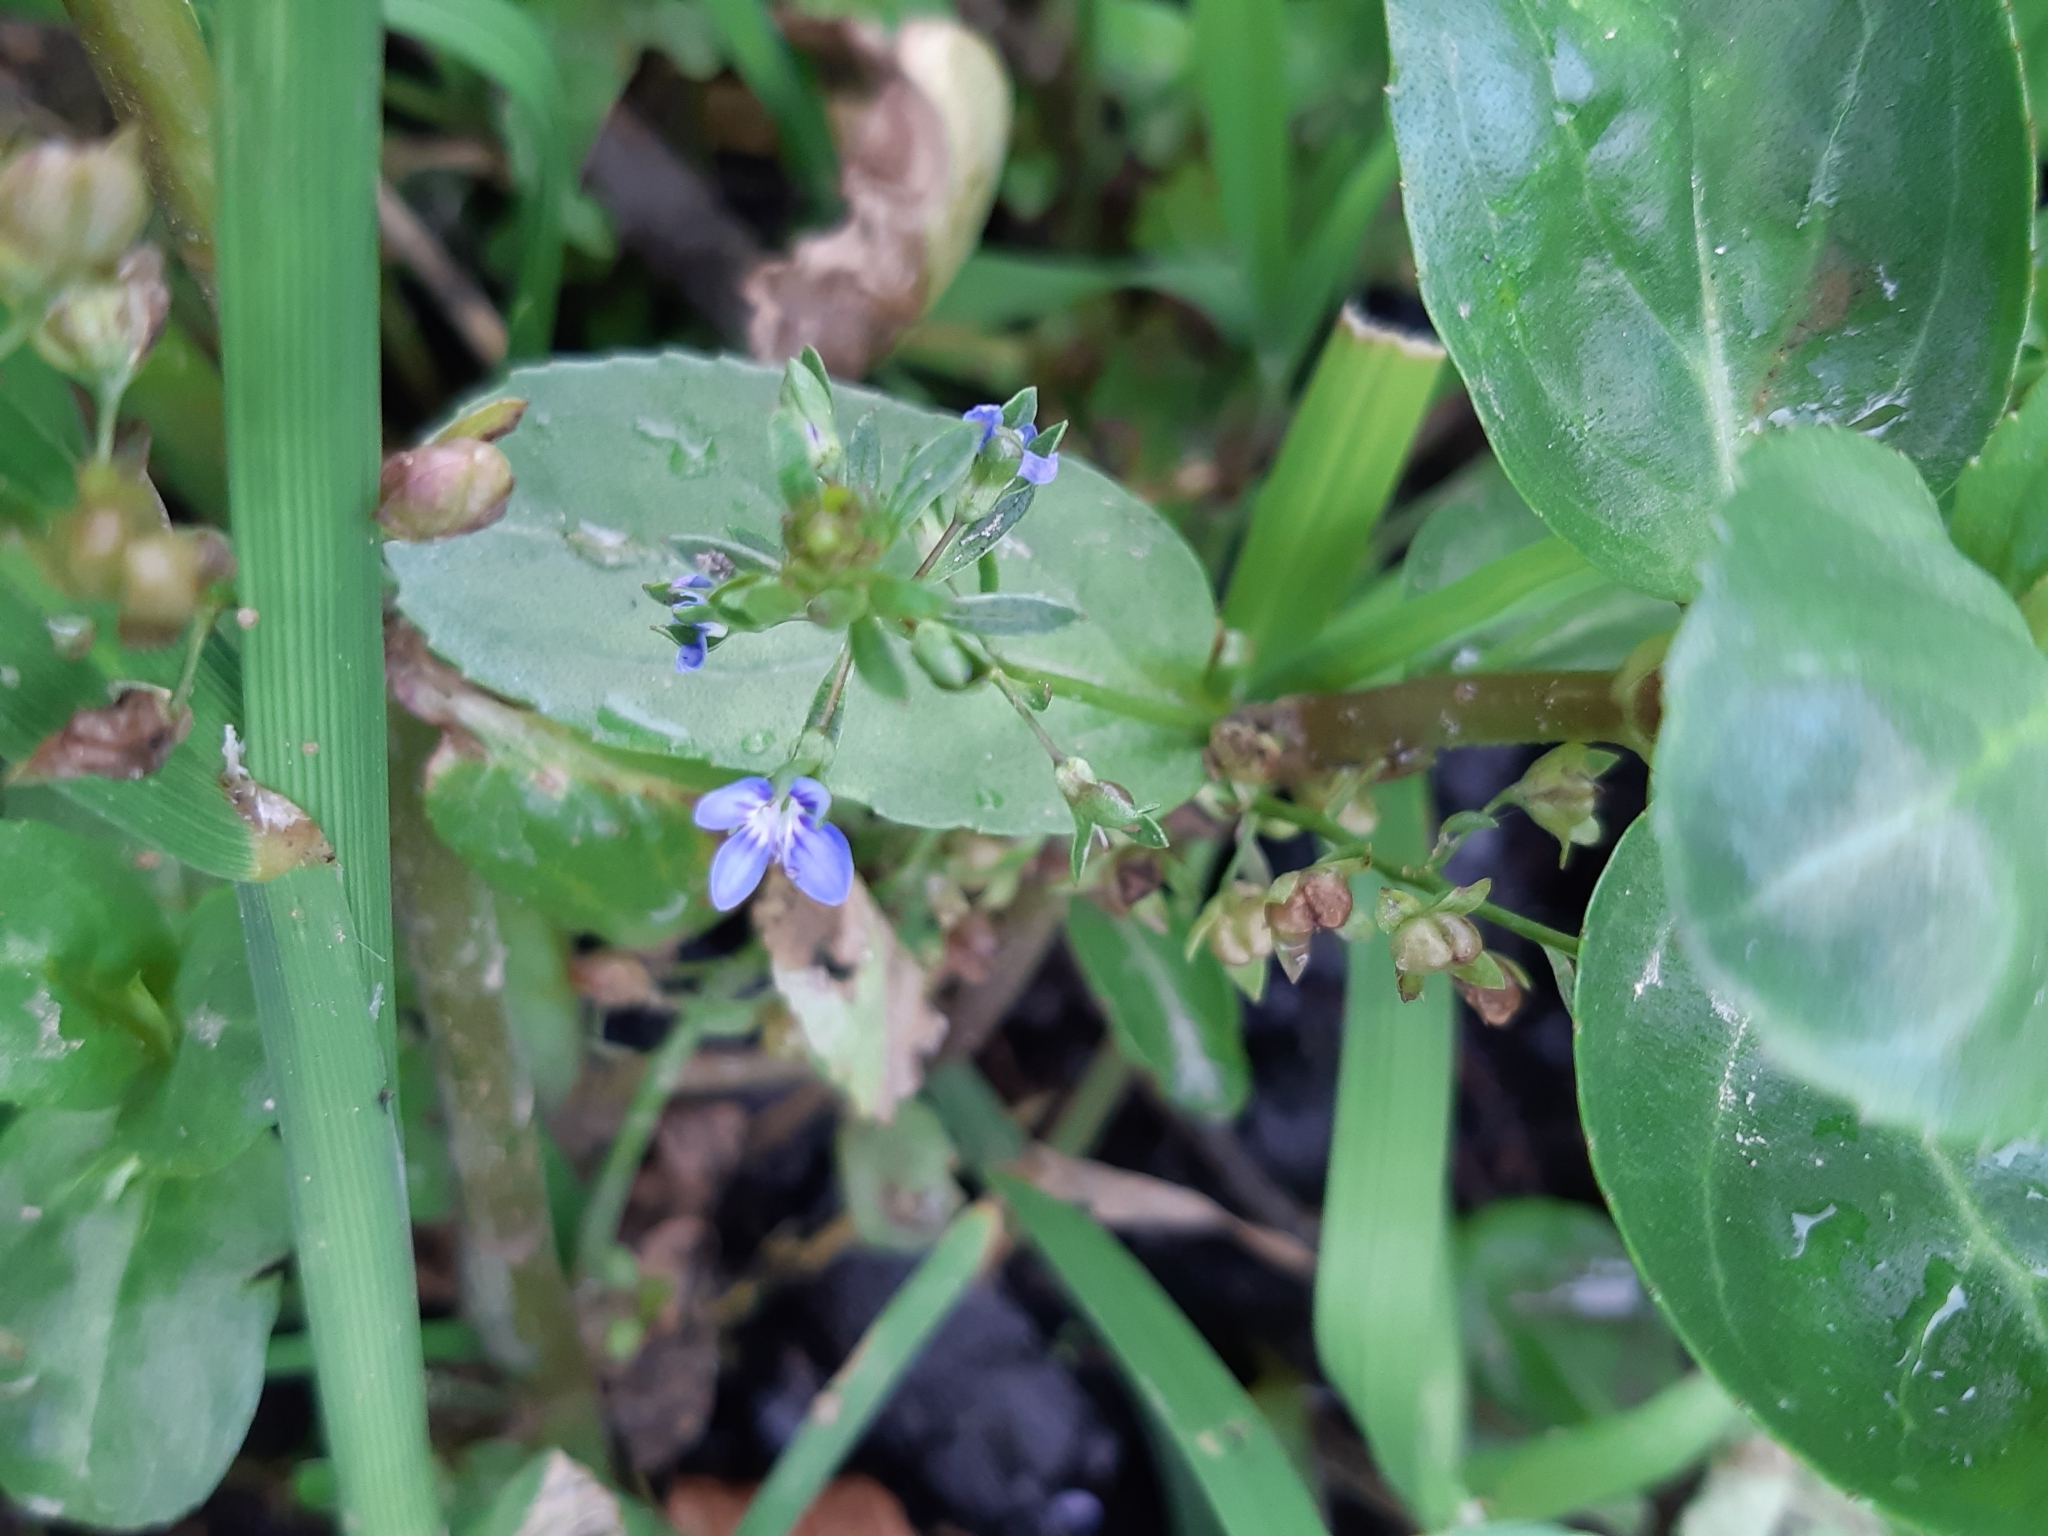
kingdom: Plantae
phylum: Tracheophyta
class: Magnoliopsida
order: Lamiales
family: Plantaginaceae
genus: Veronica
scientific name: Veronica beccabunga
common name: Brooklime
